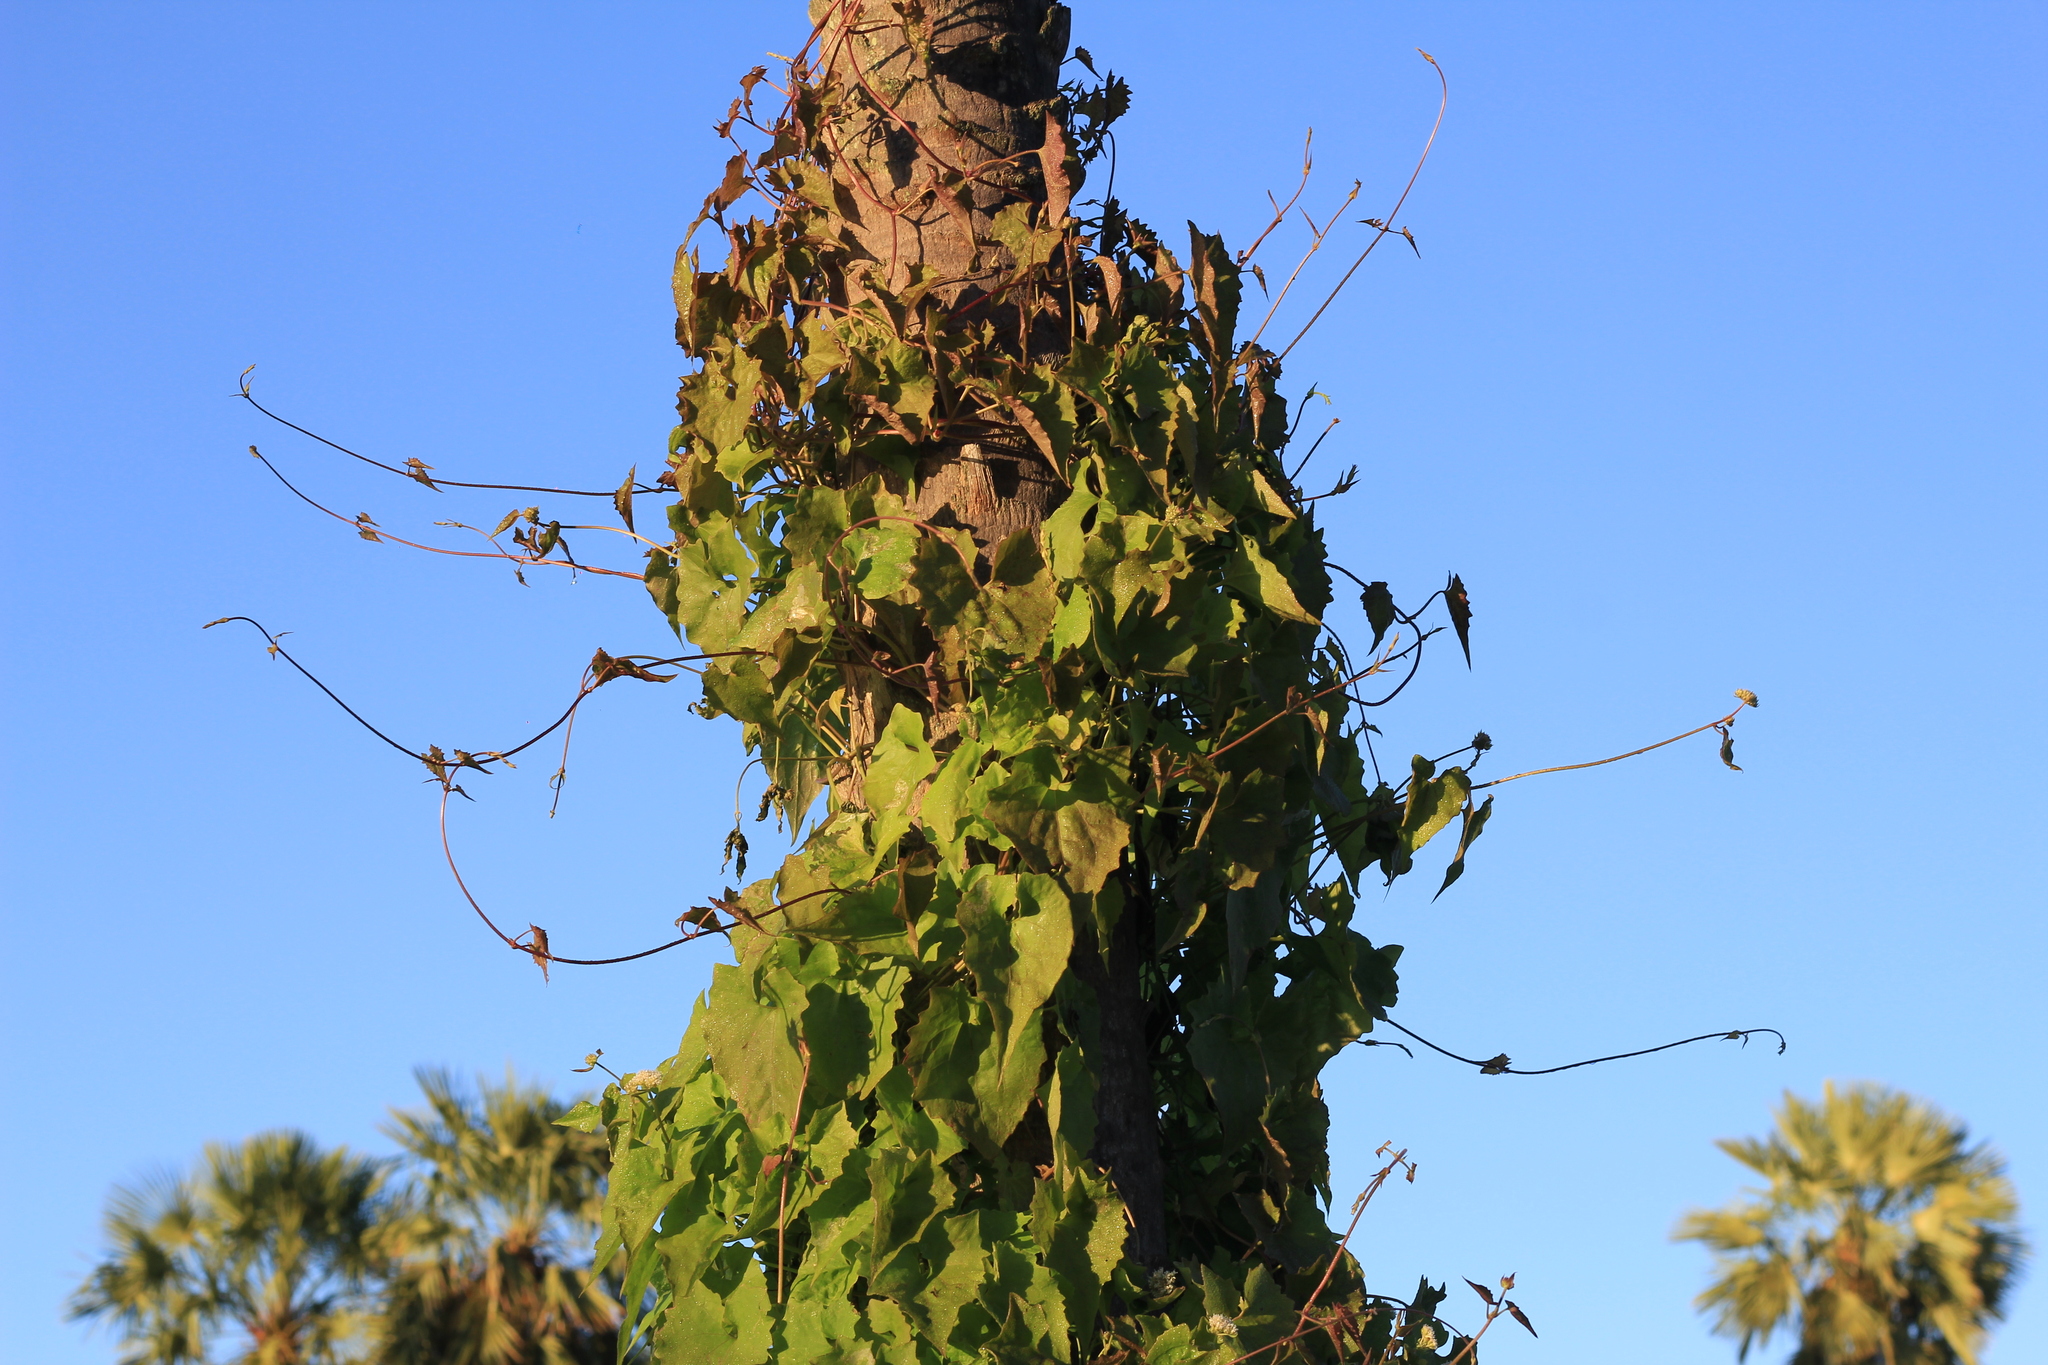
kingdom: Plantae
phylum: Tracheophyta
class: Magnoliopsida
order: Asterales
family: Asteraceae
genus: Mikania
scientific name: Mikania cynanchifolia
